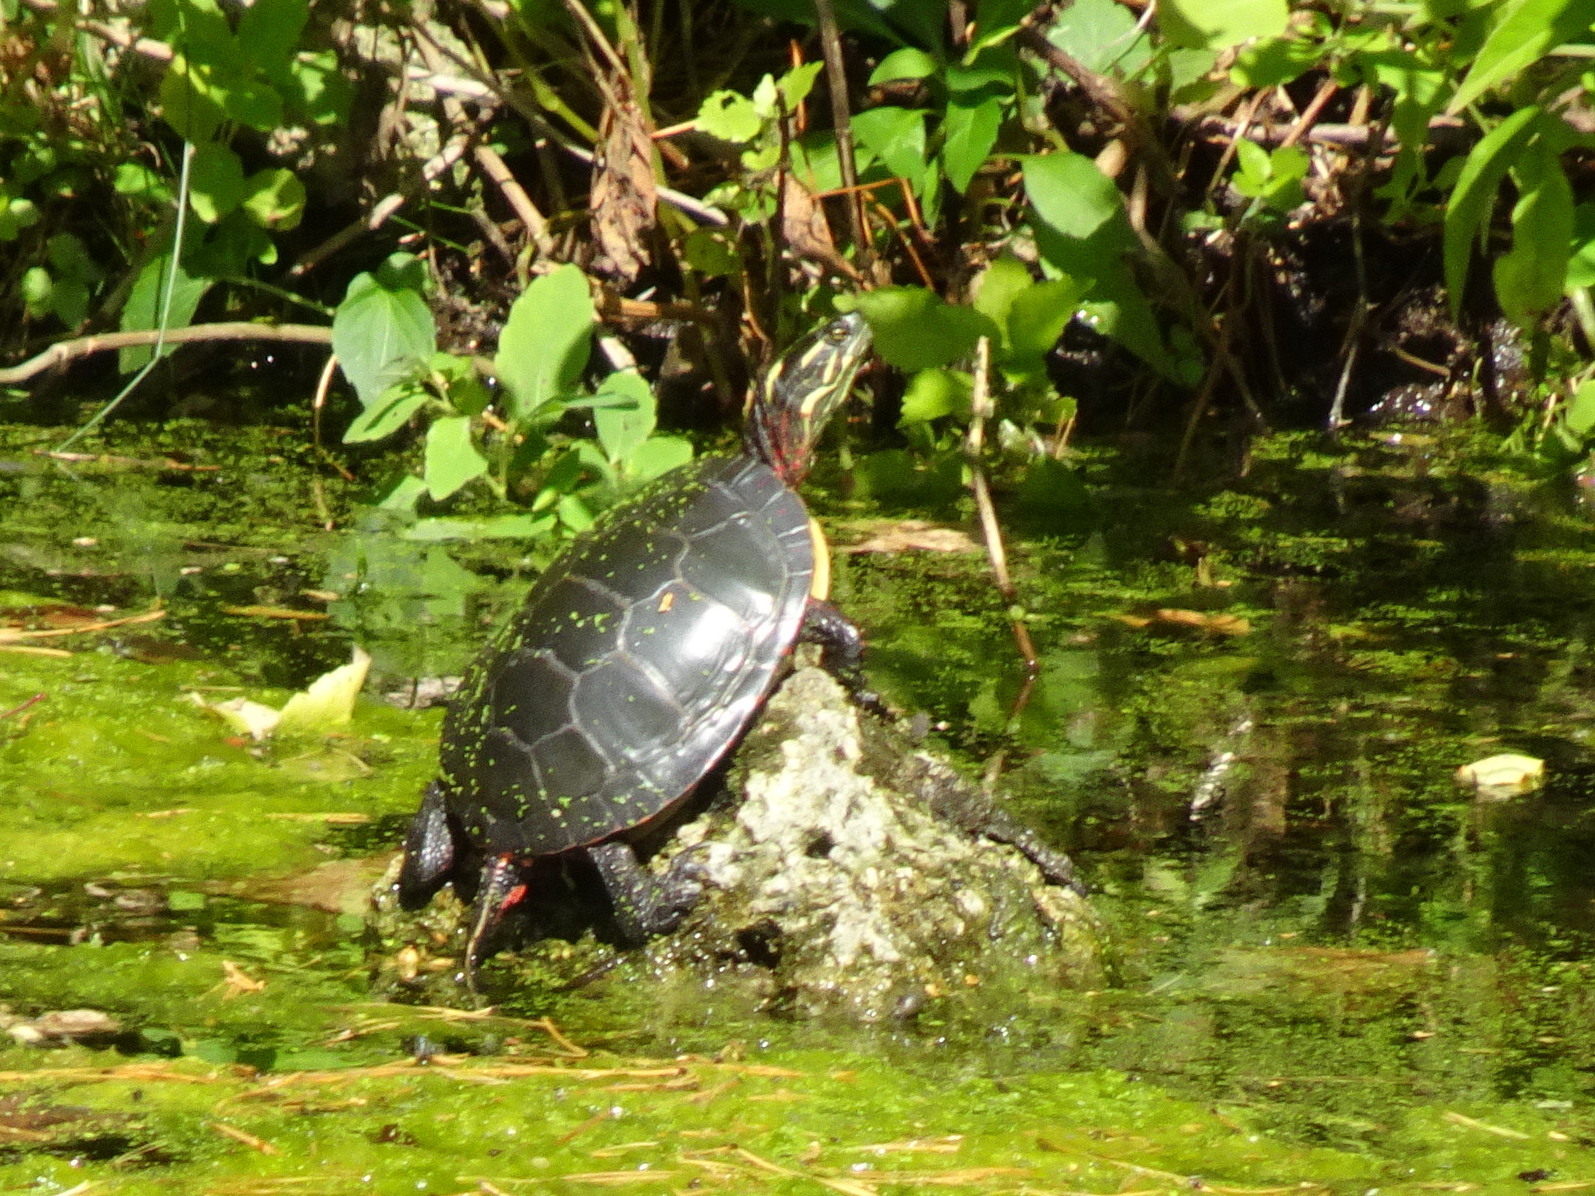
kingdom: Animalia
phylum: Chordata
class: Testudines
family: Emydidae
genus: Chrysemys
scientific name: Chrysemys picta
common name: Painted turtle
